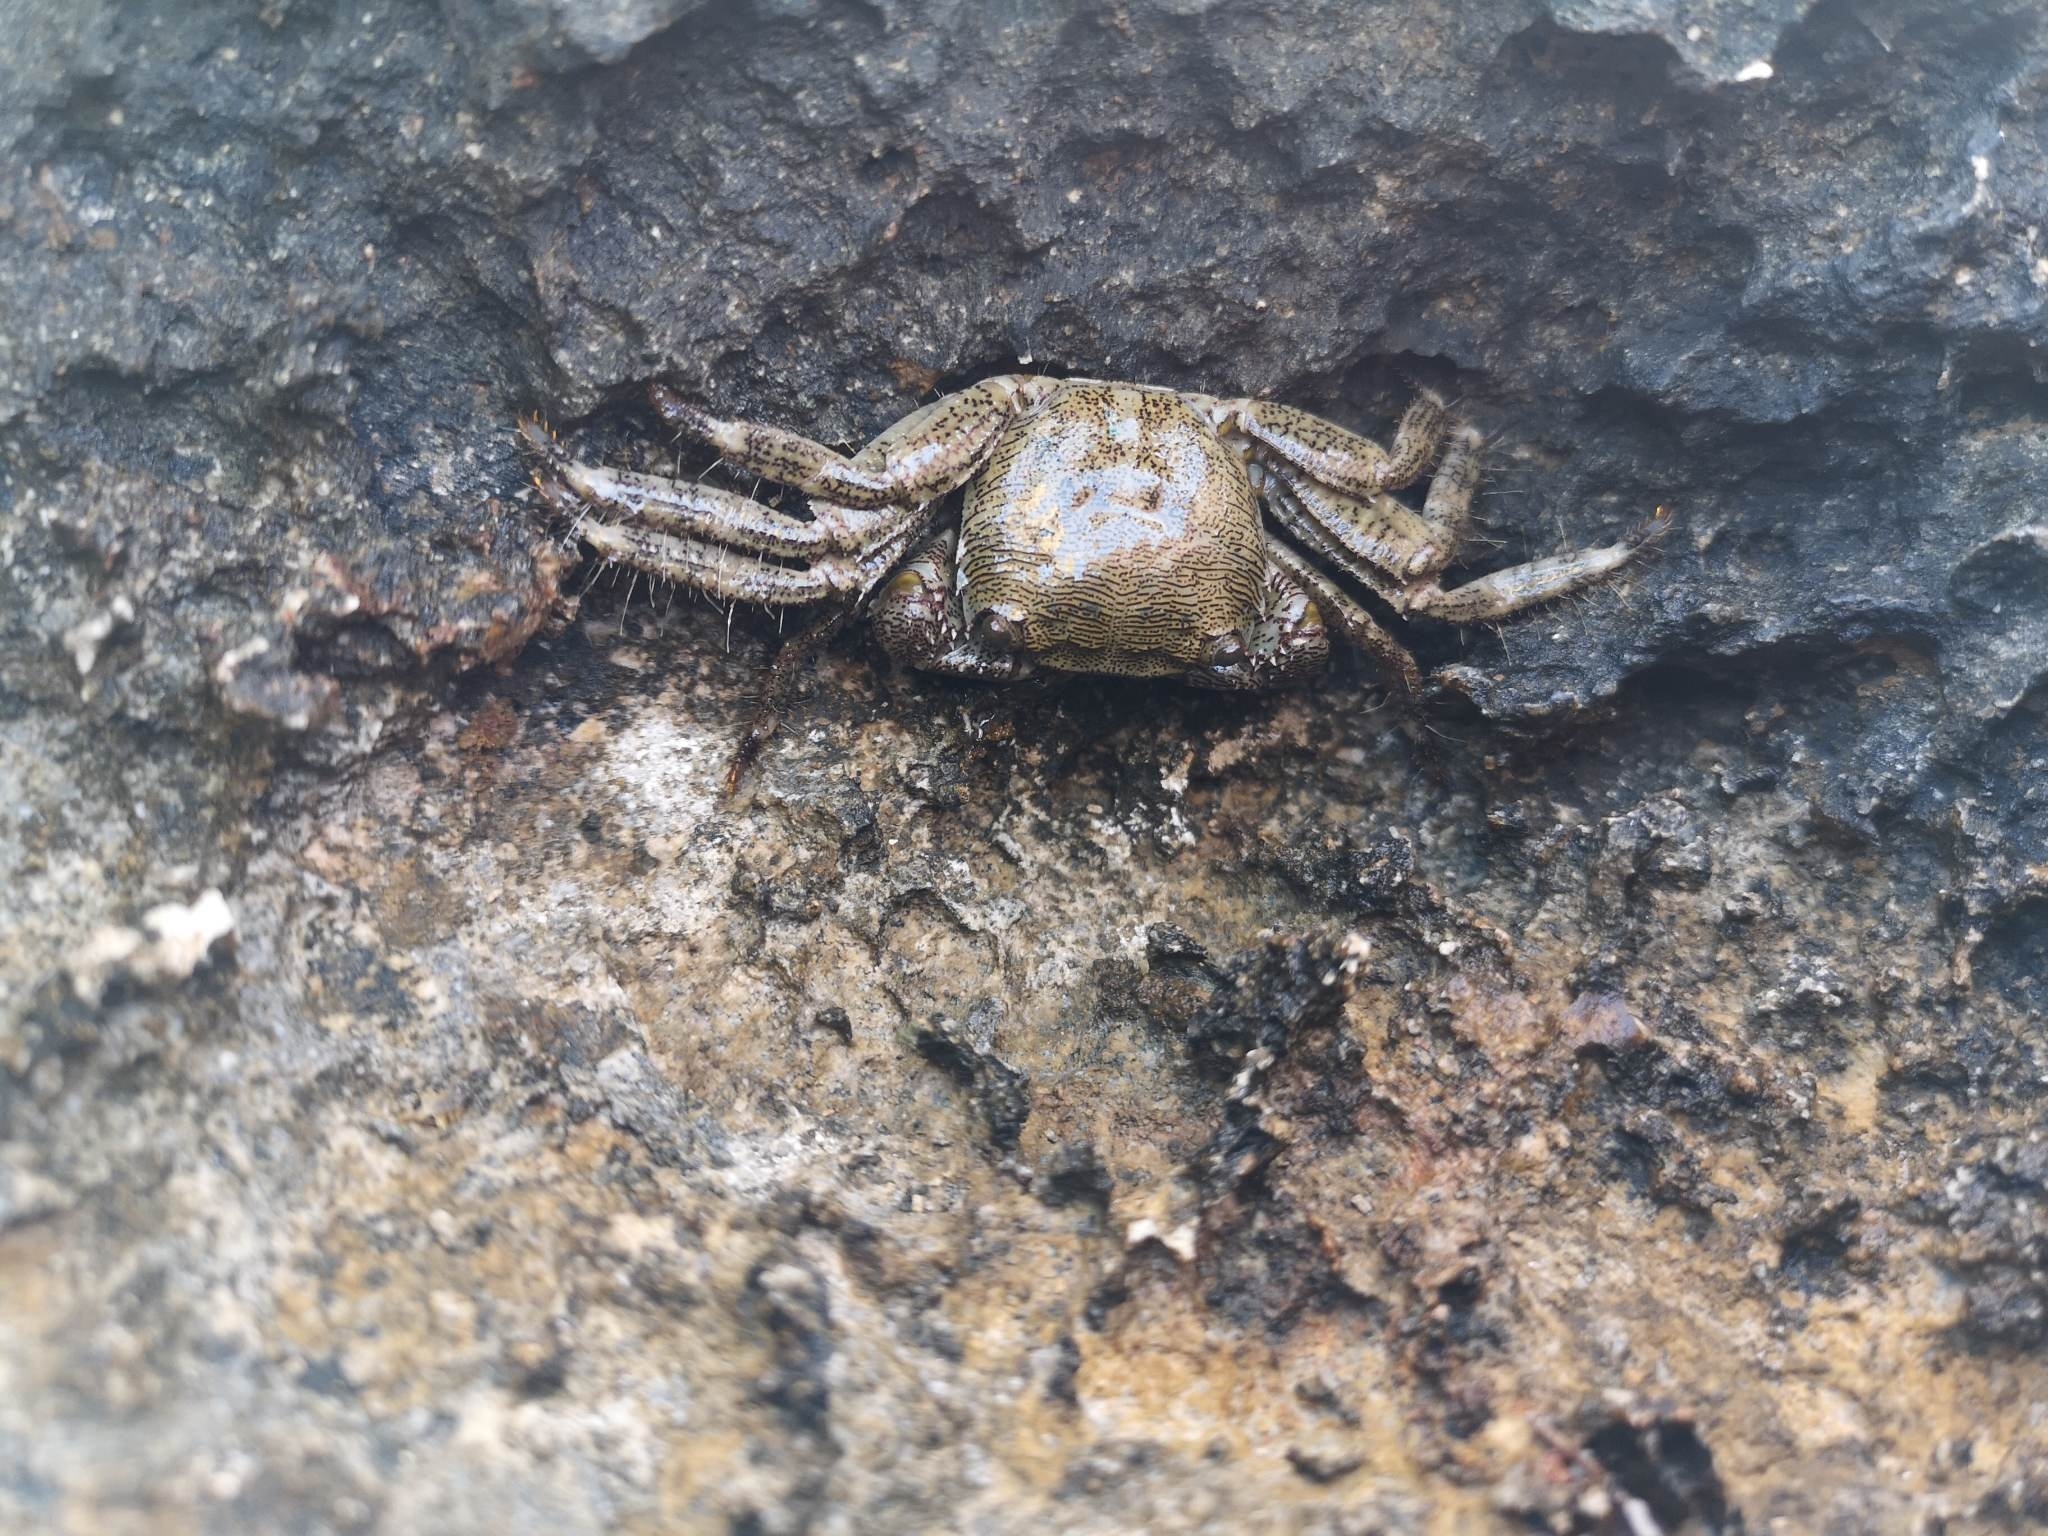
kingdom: Animalia
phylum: Arthropoda
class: Malacostraca
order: Decapoda
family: Grapsidae
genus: Pachygrapsus
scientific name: Pachygrapsus marmoratus
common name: Marbled rock crab
